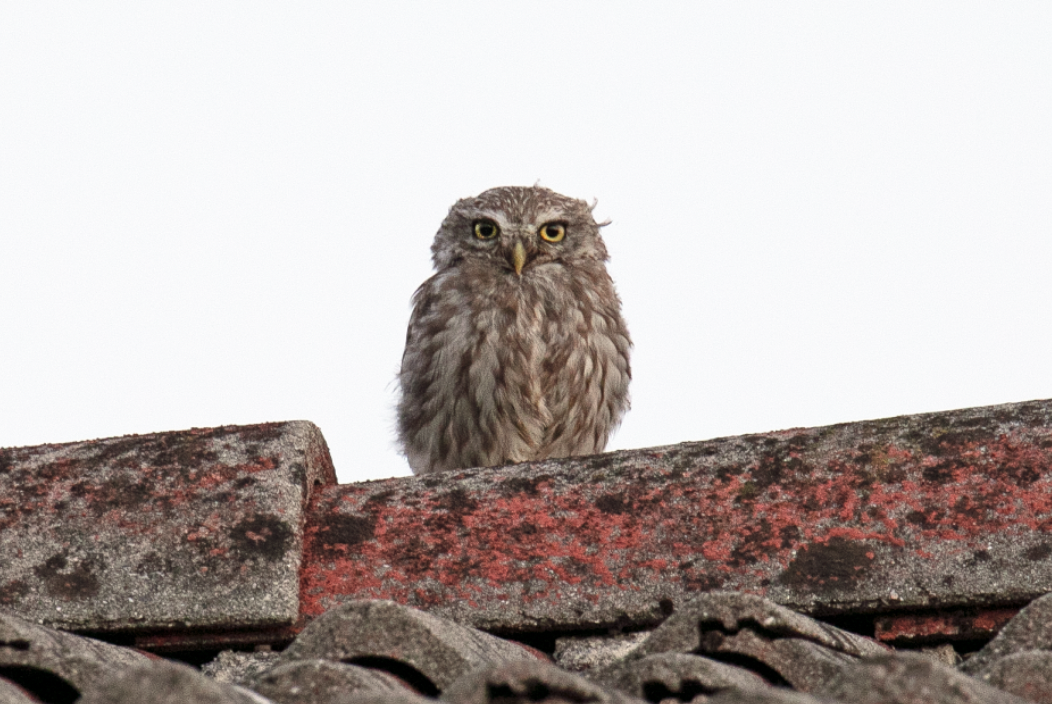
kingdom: Animalia
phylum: Chordata
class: Aves
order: Strigiformes
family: Strigidae
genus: Athene
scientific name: Athene noctua
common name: Little owl
